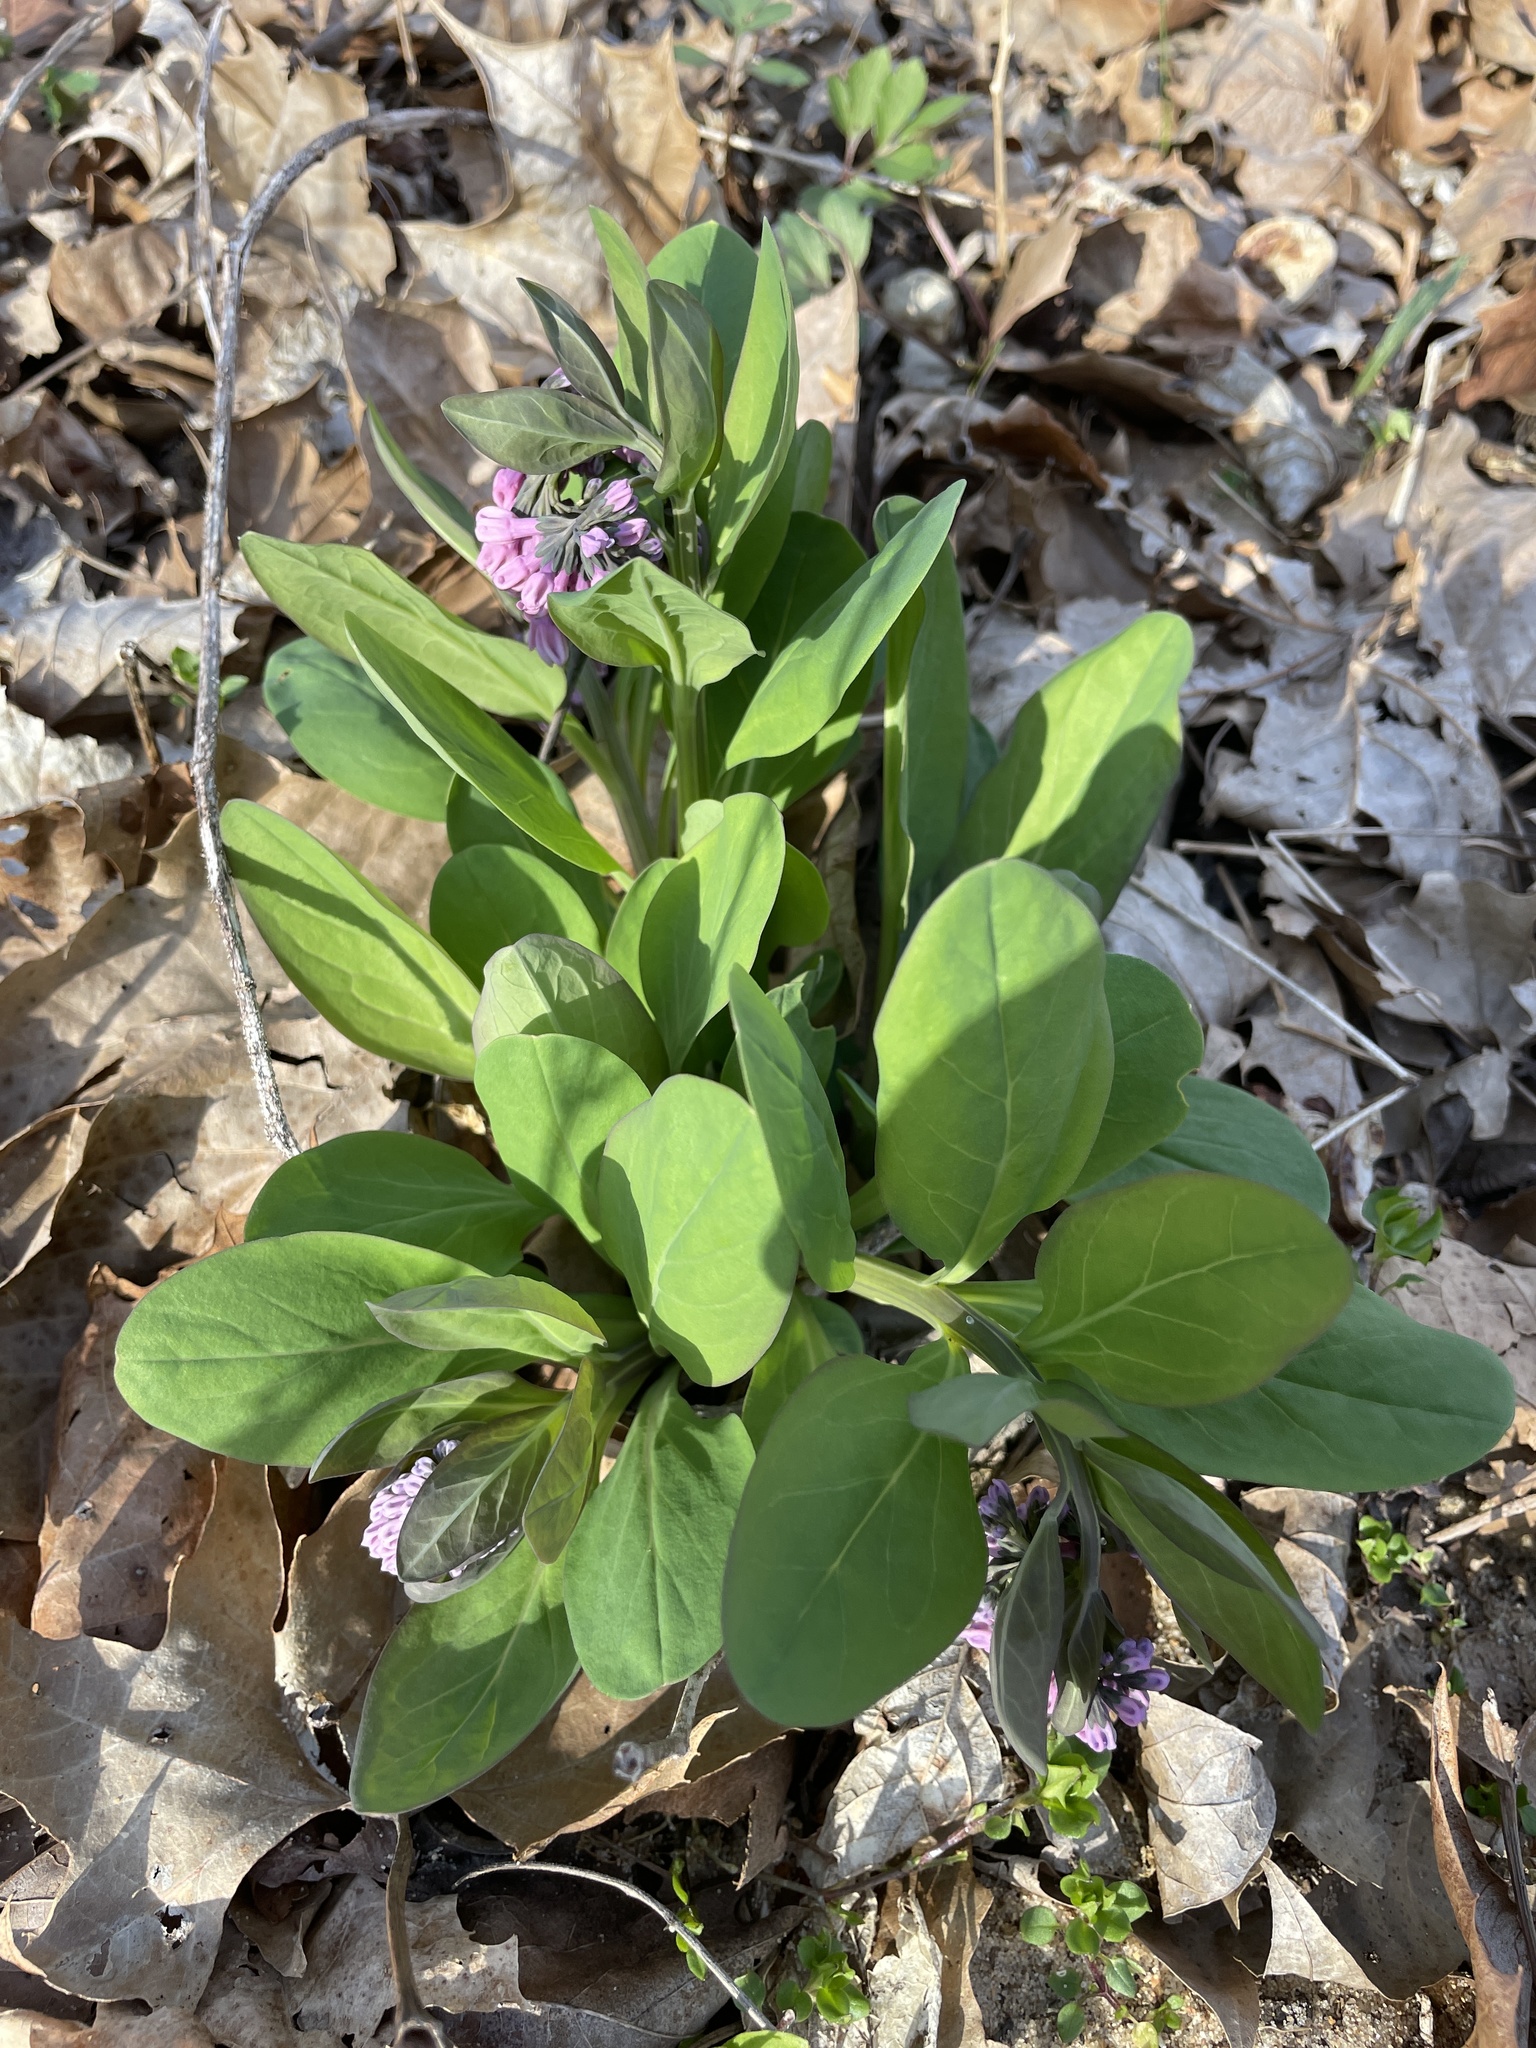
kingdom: Plantae
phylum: Tracheophyta
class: Magnoliopsida
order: Boraginales
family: Boraginaceae
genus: Mertensia
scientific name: Mertensia virginica
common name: Virginia bluebells
